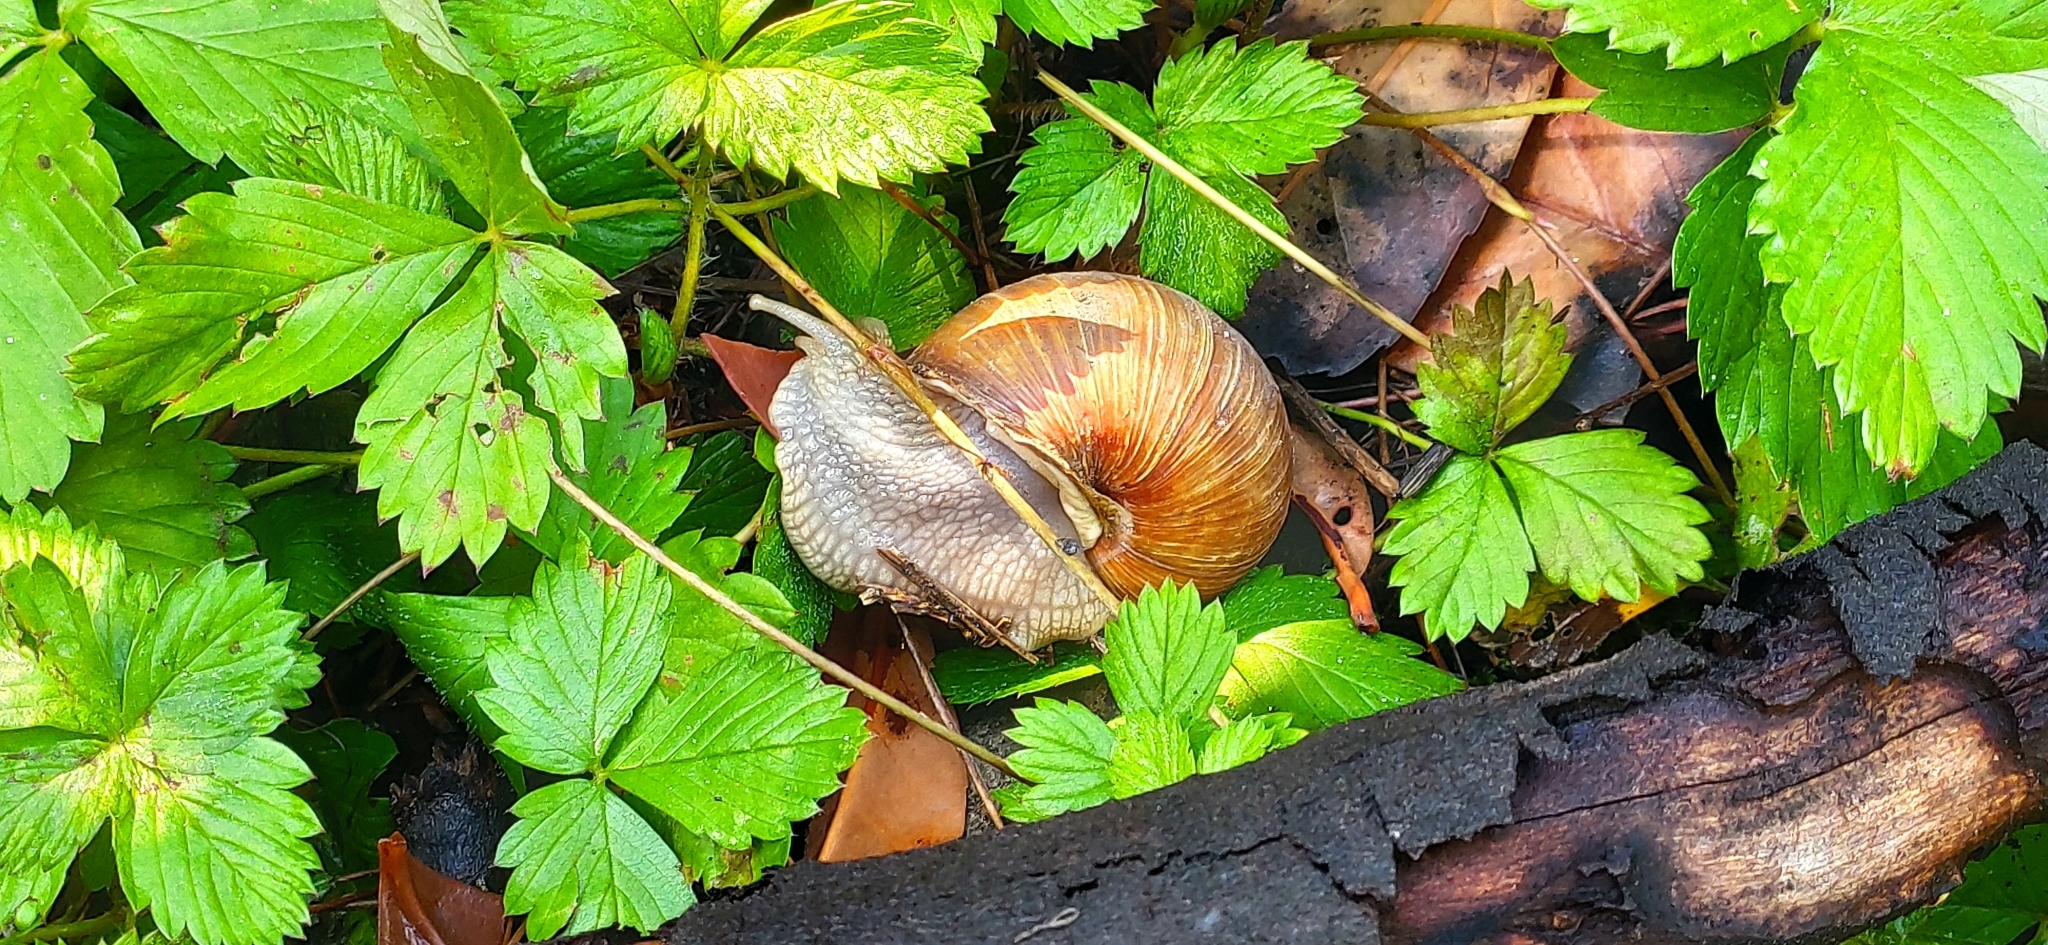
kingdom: Animalia
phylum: Mollusca
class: Gastropoda
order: Stylommatophora
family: Helicidae
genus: Helix
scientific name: Helix pomatia
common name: Roman snail
